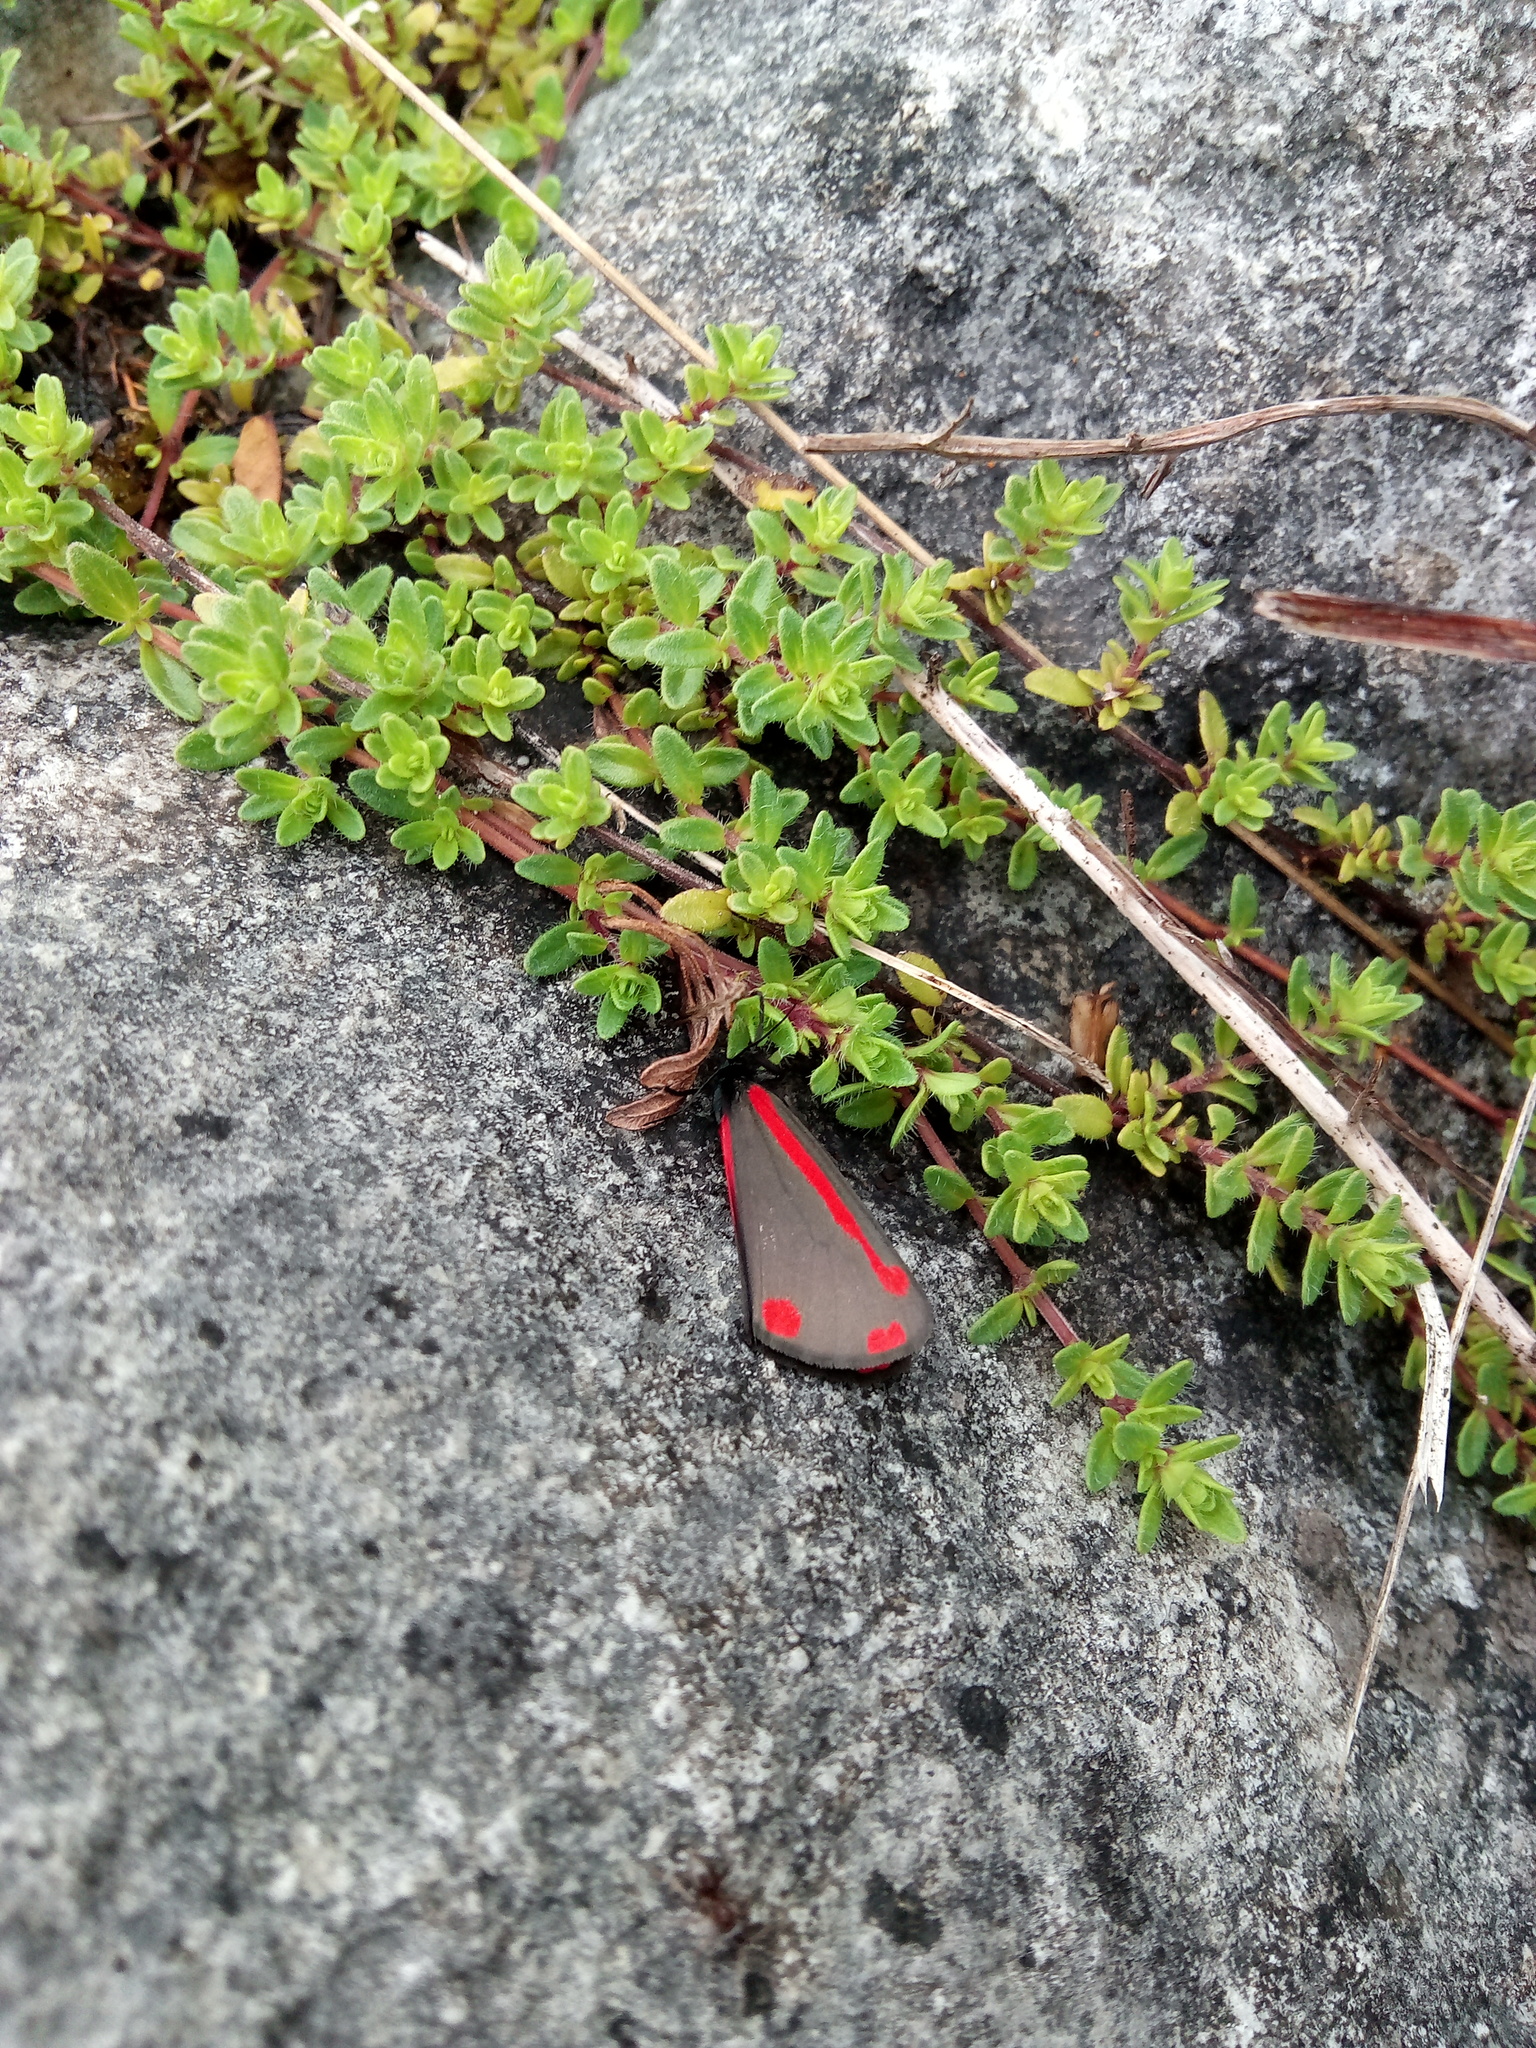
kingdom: Animalia
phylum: Arthropoda
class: Insecta
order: Lepidoptera
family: Erebidae
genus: Tyria
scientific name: Tyria jacobaeae
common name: Cinnabar
